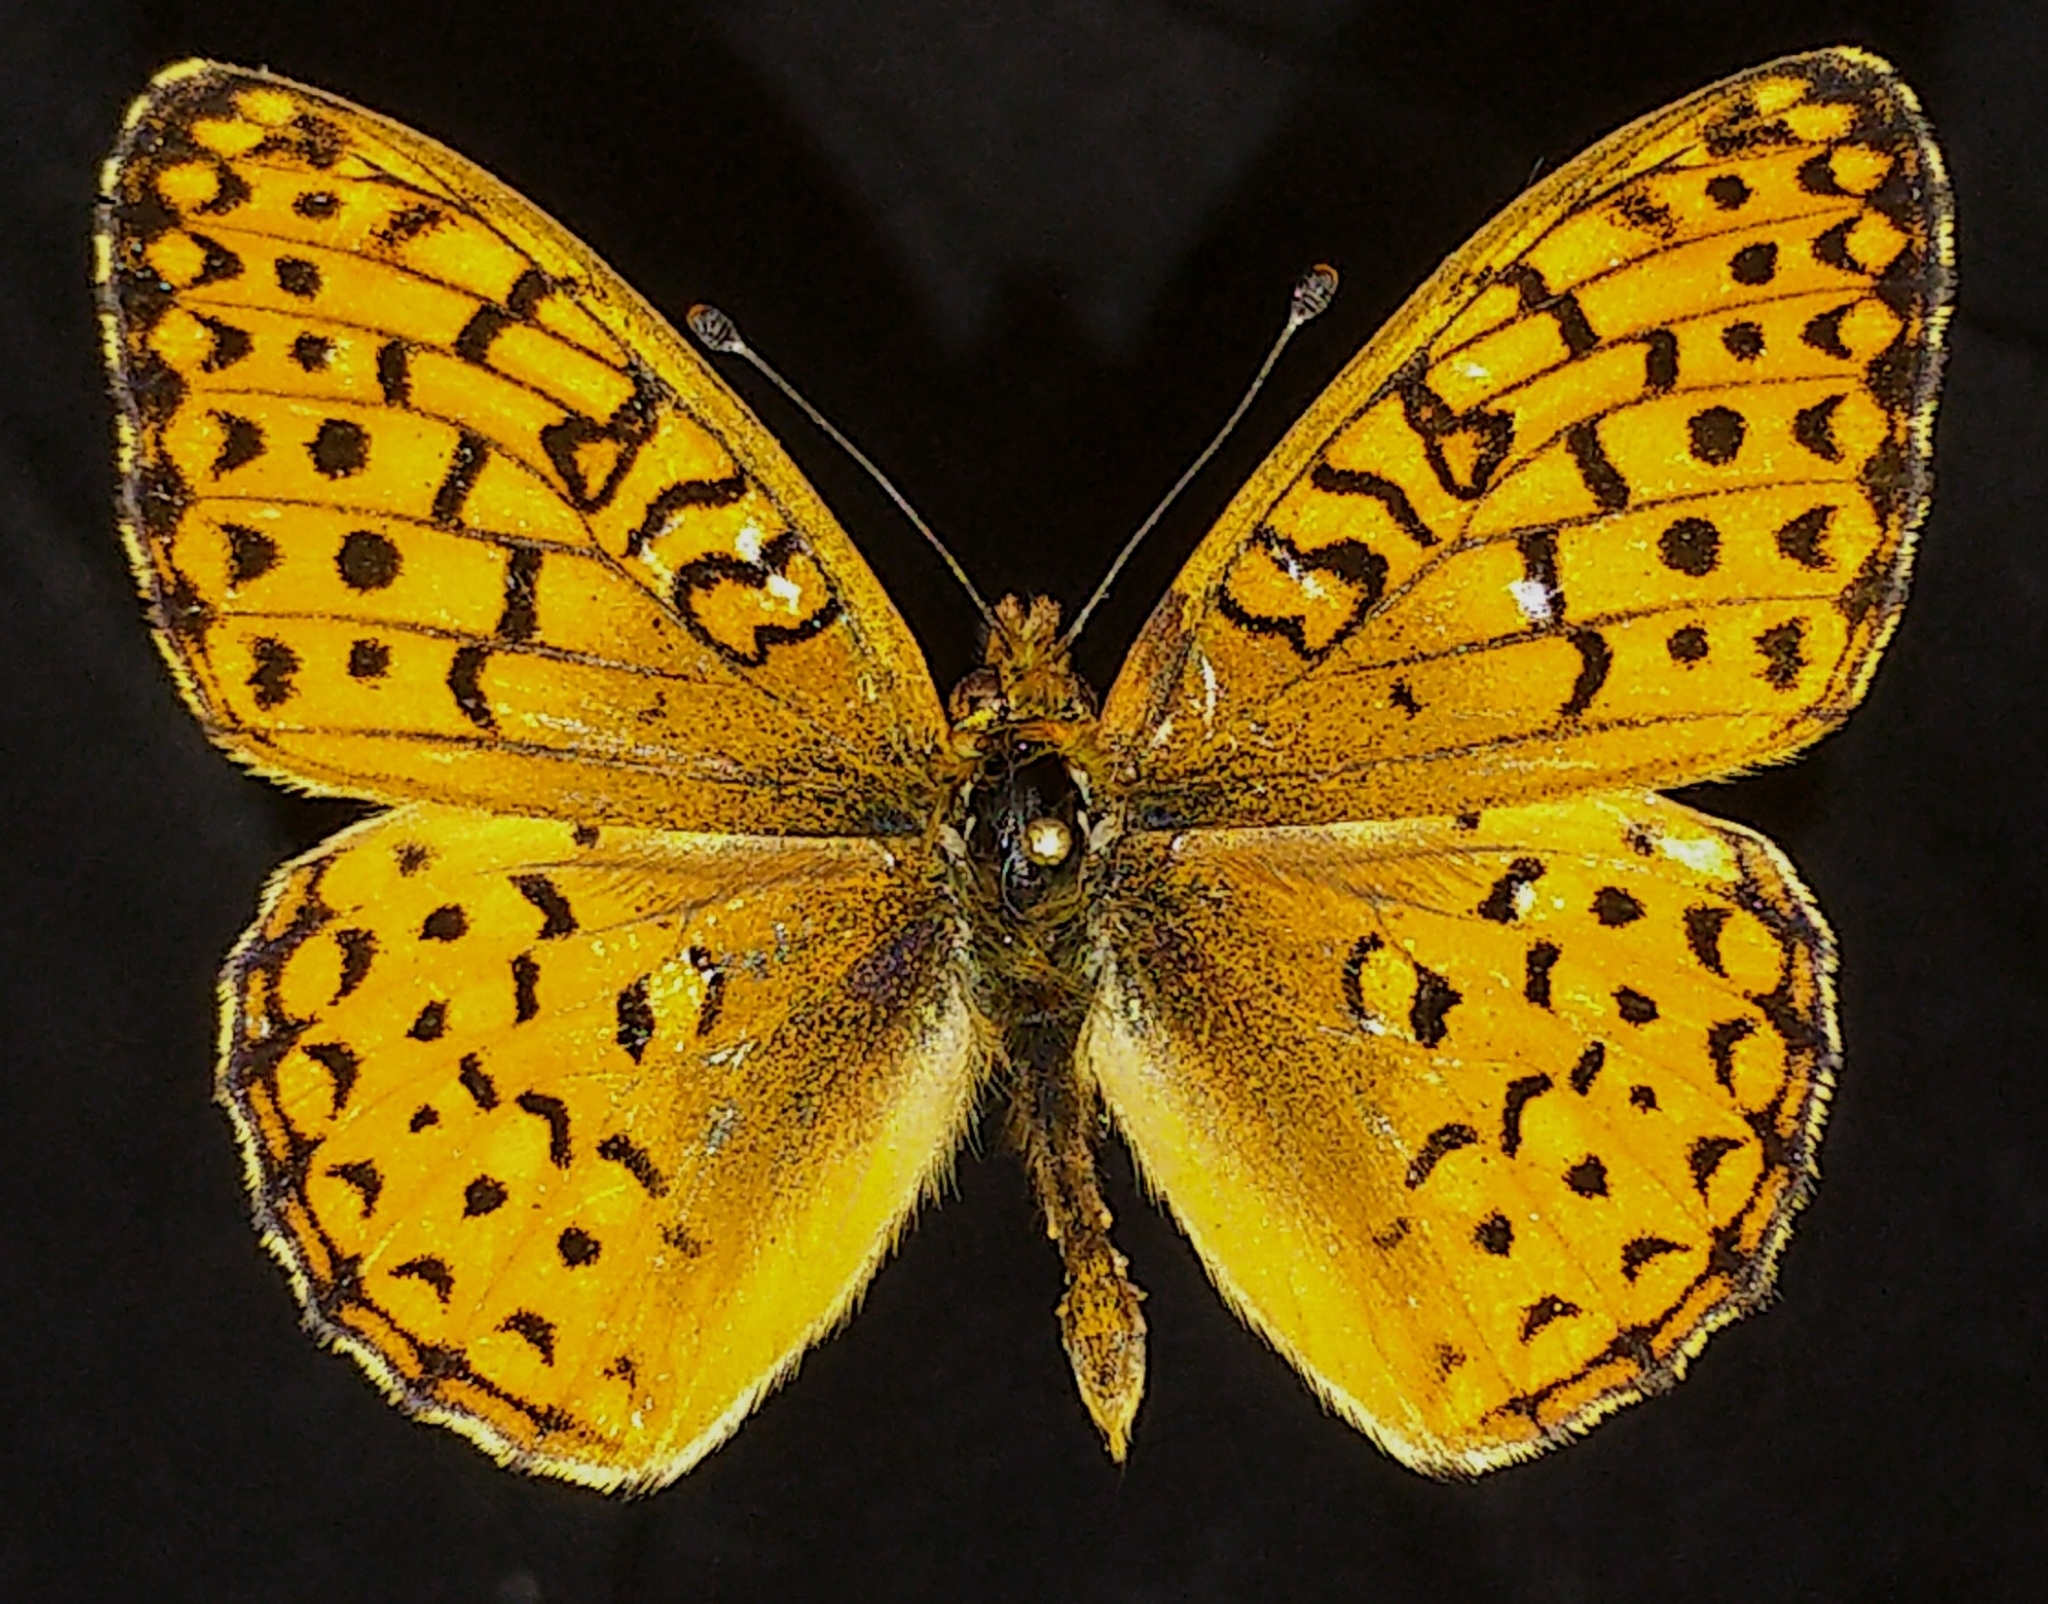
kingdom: Animalia
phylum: Arthropoda
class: Insecta
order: Lepidoptera
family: Nymphalidae
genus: Speyeria
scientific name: Speyeria atlantis
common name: Atlantis fritillary
